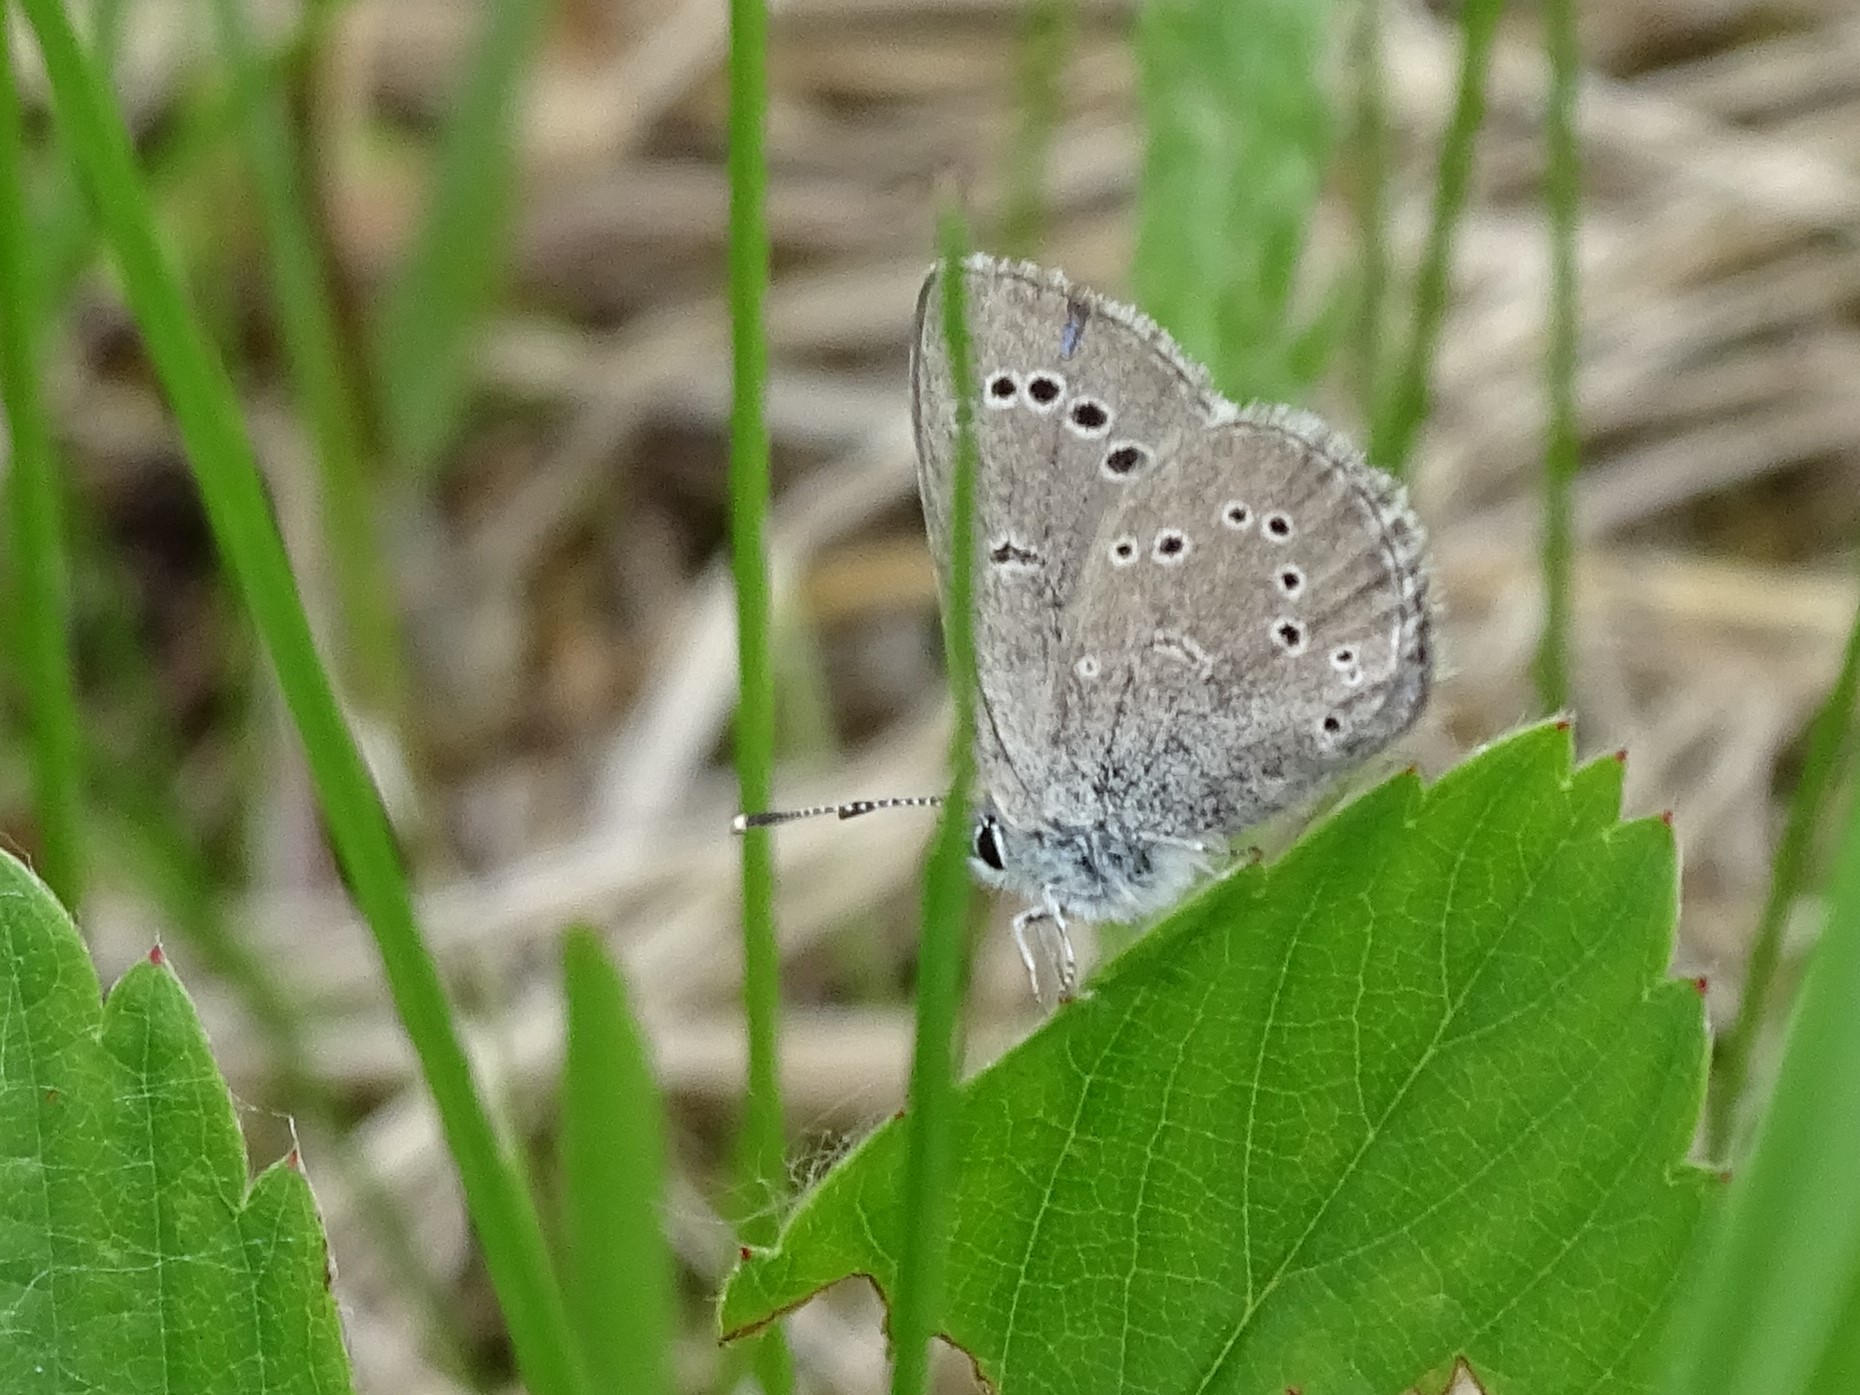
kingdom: Animalia
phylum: Arthropoda
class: Insecta
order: Lepidoptera
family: Lycaenidae
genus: Glaucopsyche
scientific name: Glaucopsyche lygdamus
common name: Silvery blue
